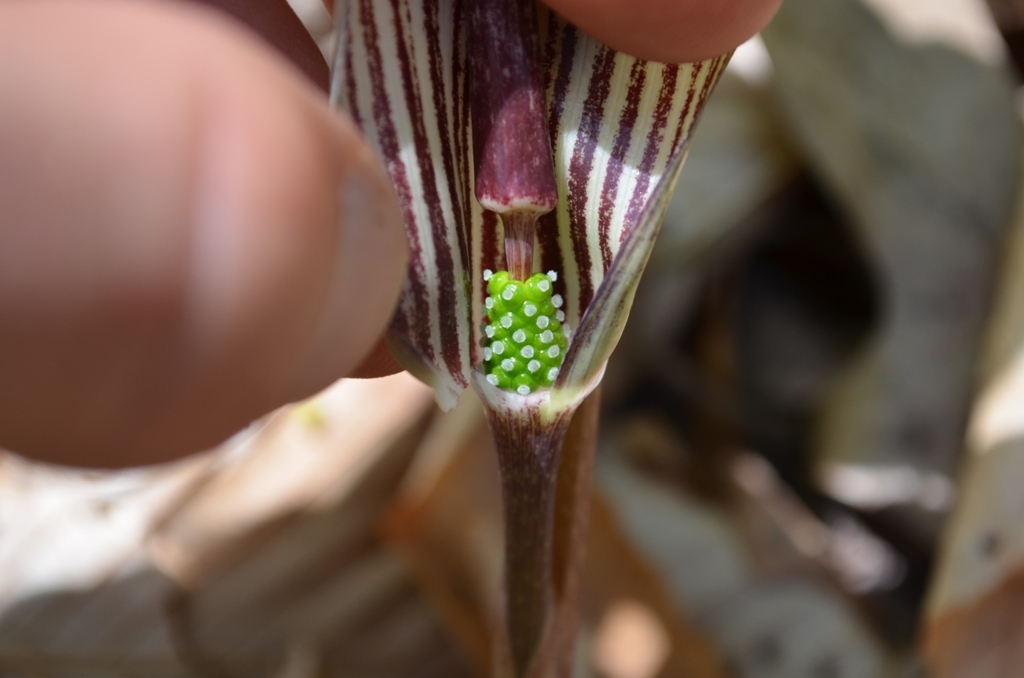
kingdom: Plantae
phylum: Tracheophyta
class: Liliopsida
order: Alismatales
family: Araceae
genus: Arisaema
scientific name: Arisaema triphyllum
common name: Jack-in-the-pulpit
